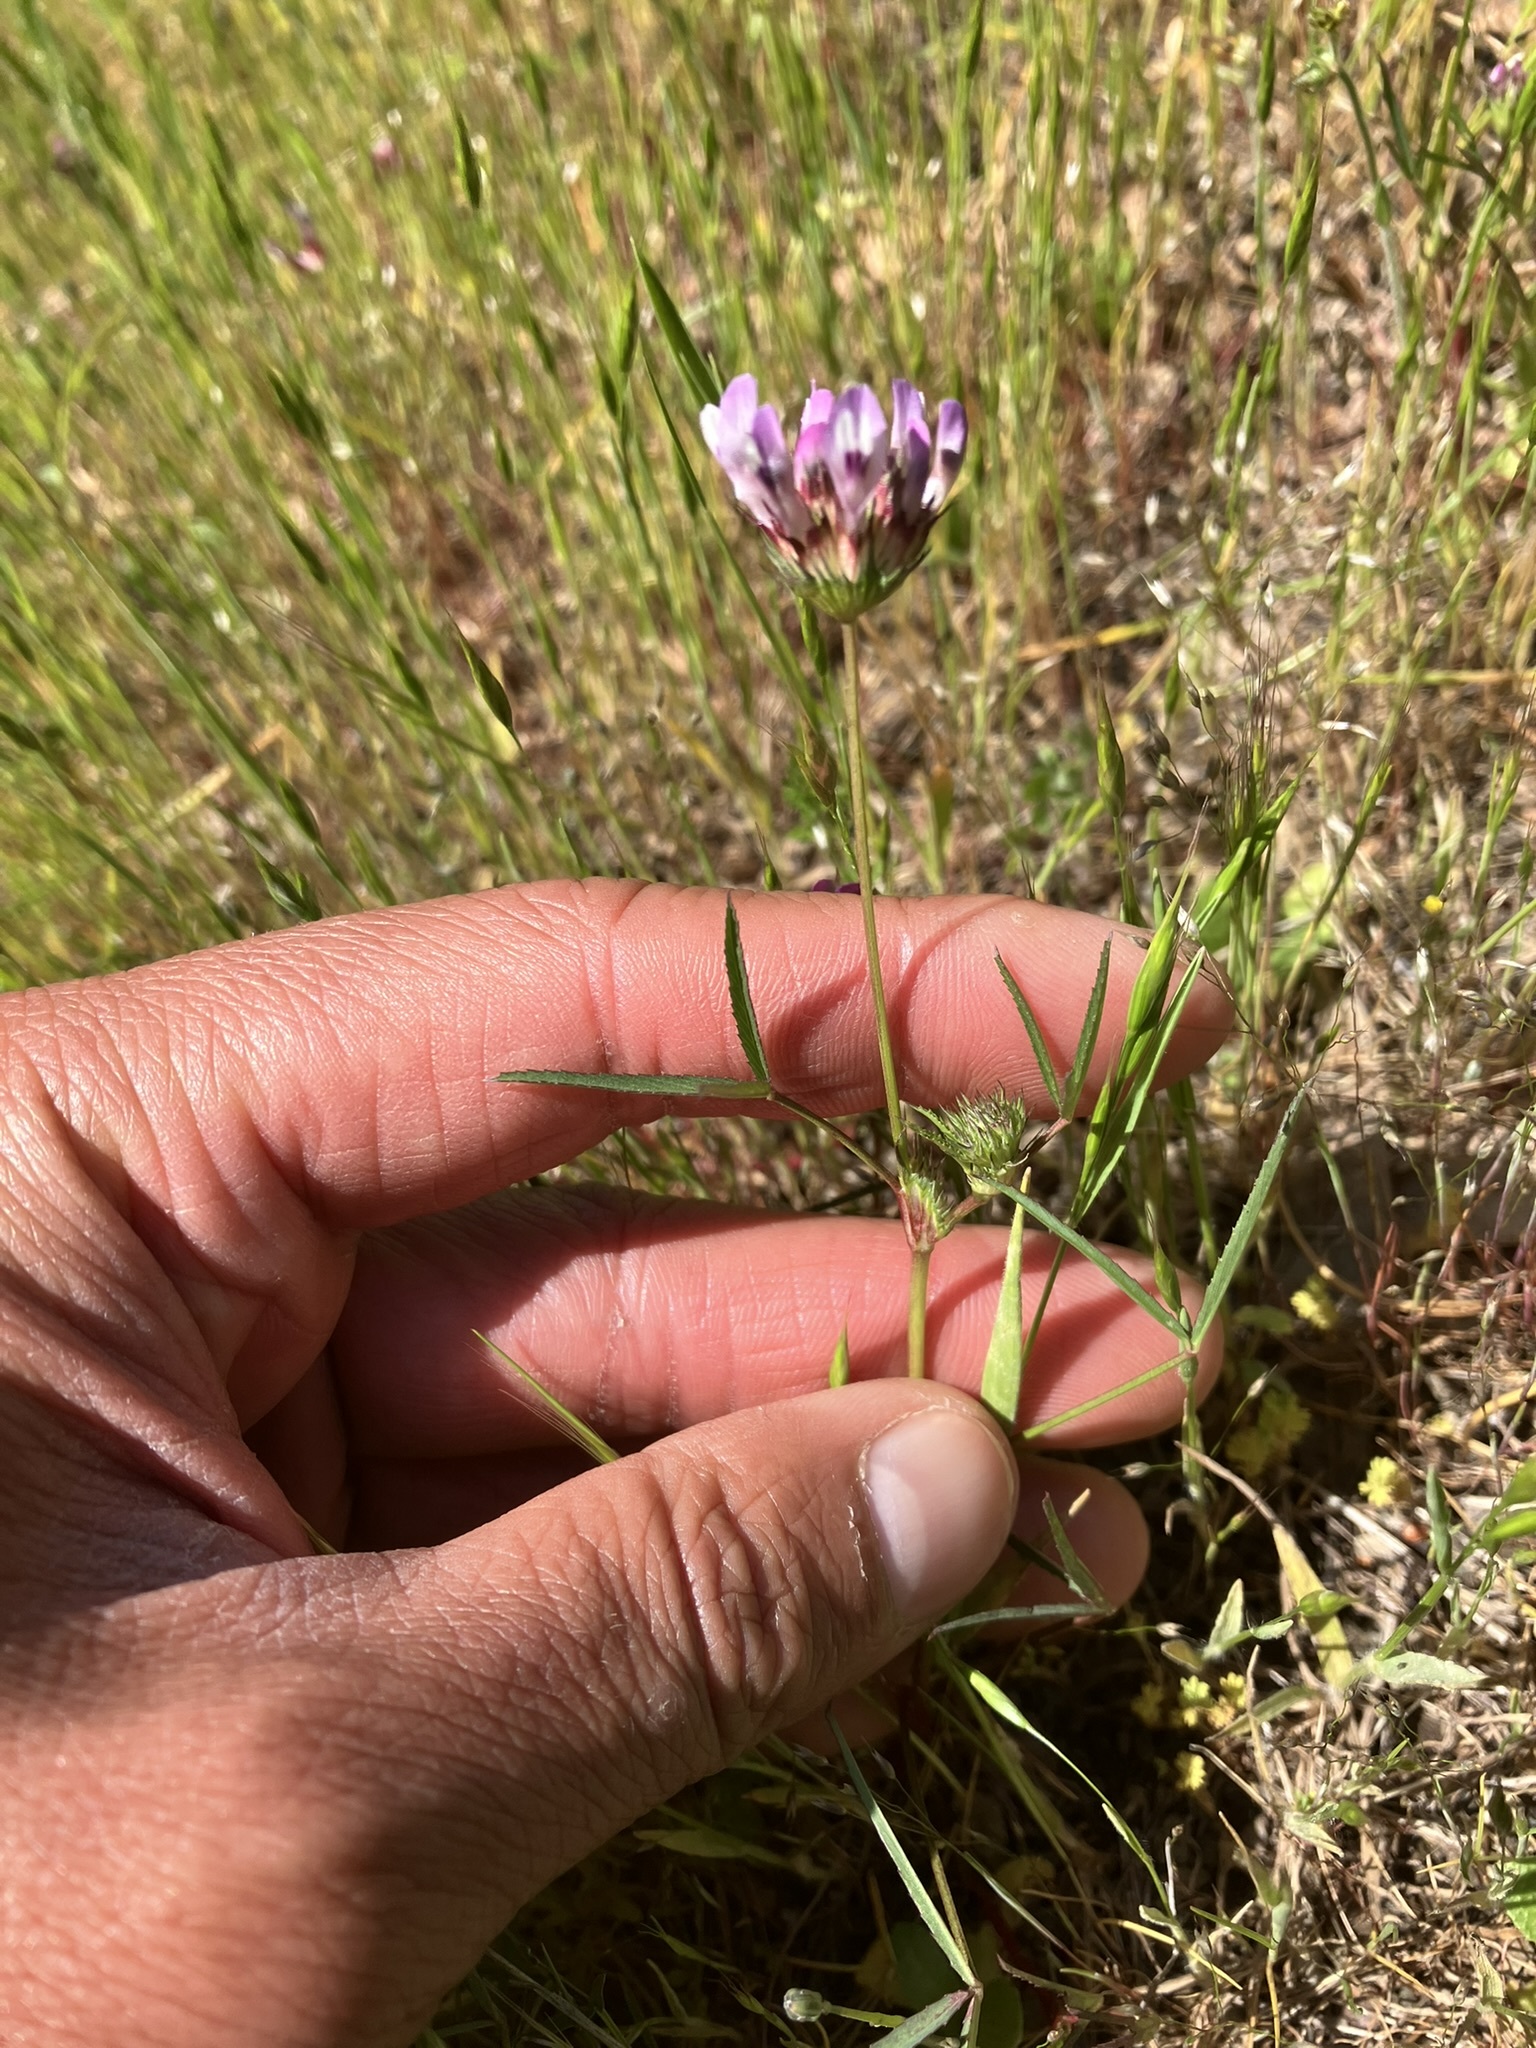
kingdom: Plantae
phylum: Tracheophyta
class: Magnoliopsida
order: Fabales
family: Fabaceae
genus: Trifolium
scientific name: Trifolium willdenovii
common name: Tomcat clover
